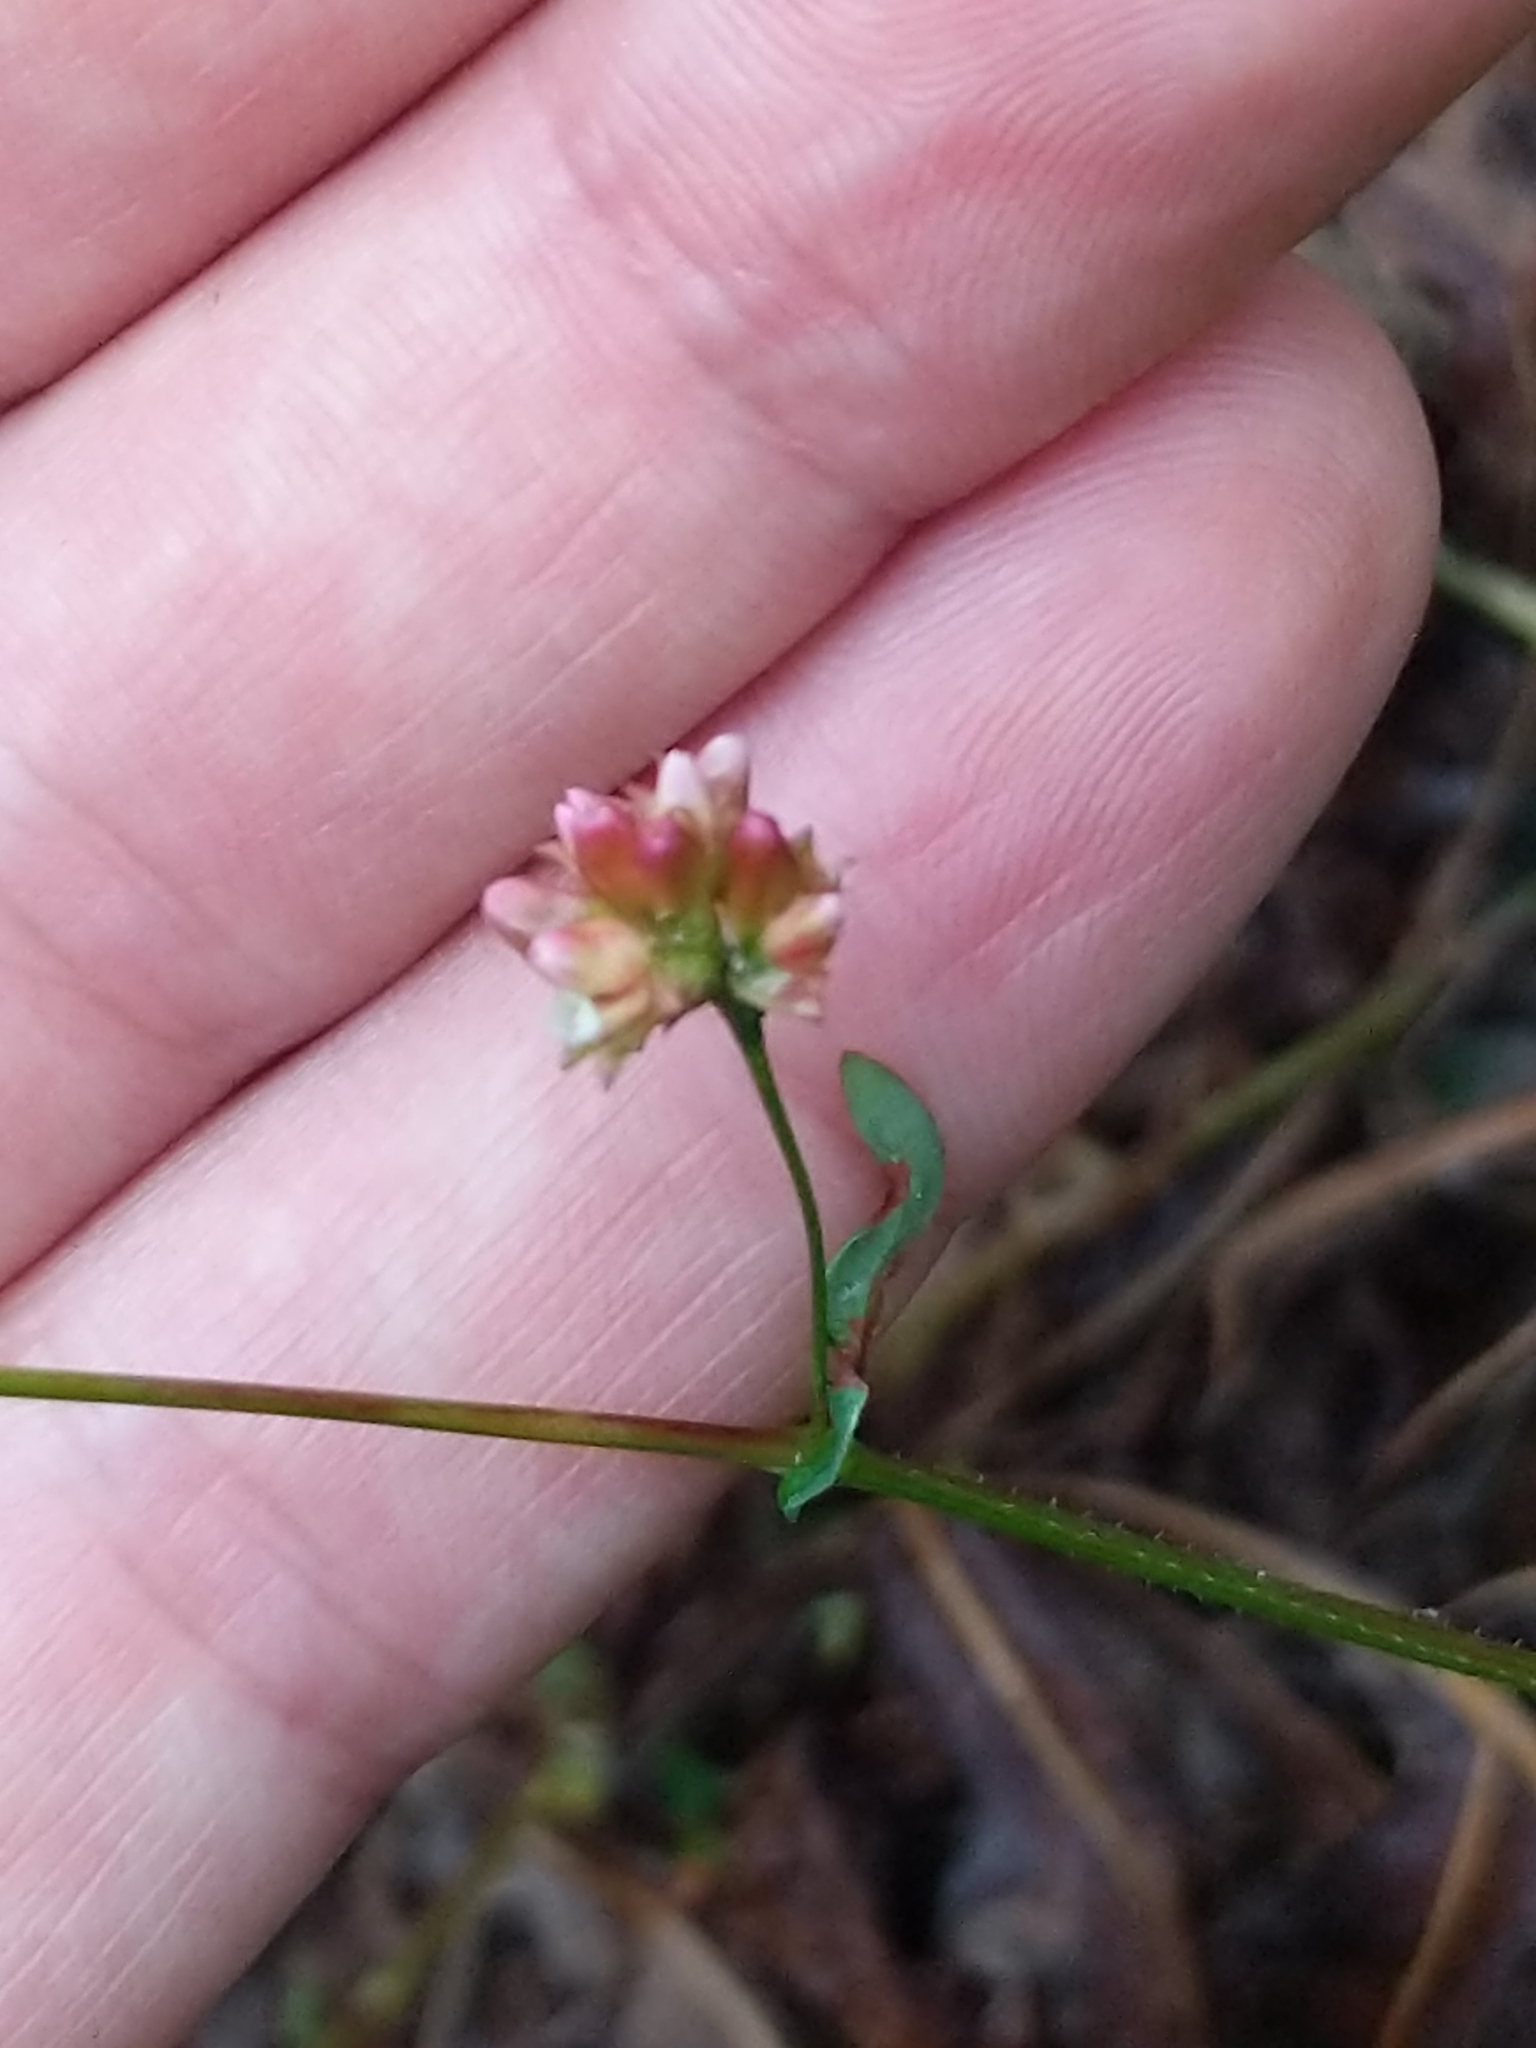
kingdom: Plantae
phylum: Tracheophyta
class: Magnoliopsida
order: Caryophyllales
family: Polygonaceae
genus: Persicaria
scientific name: Persicaria sagittata
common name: American tearthumb
